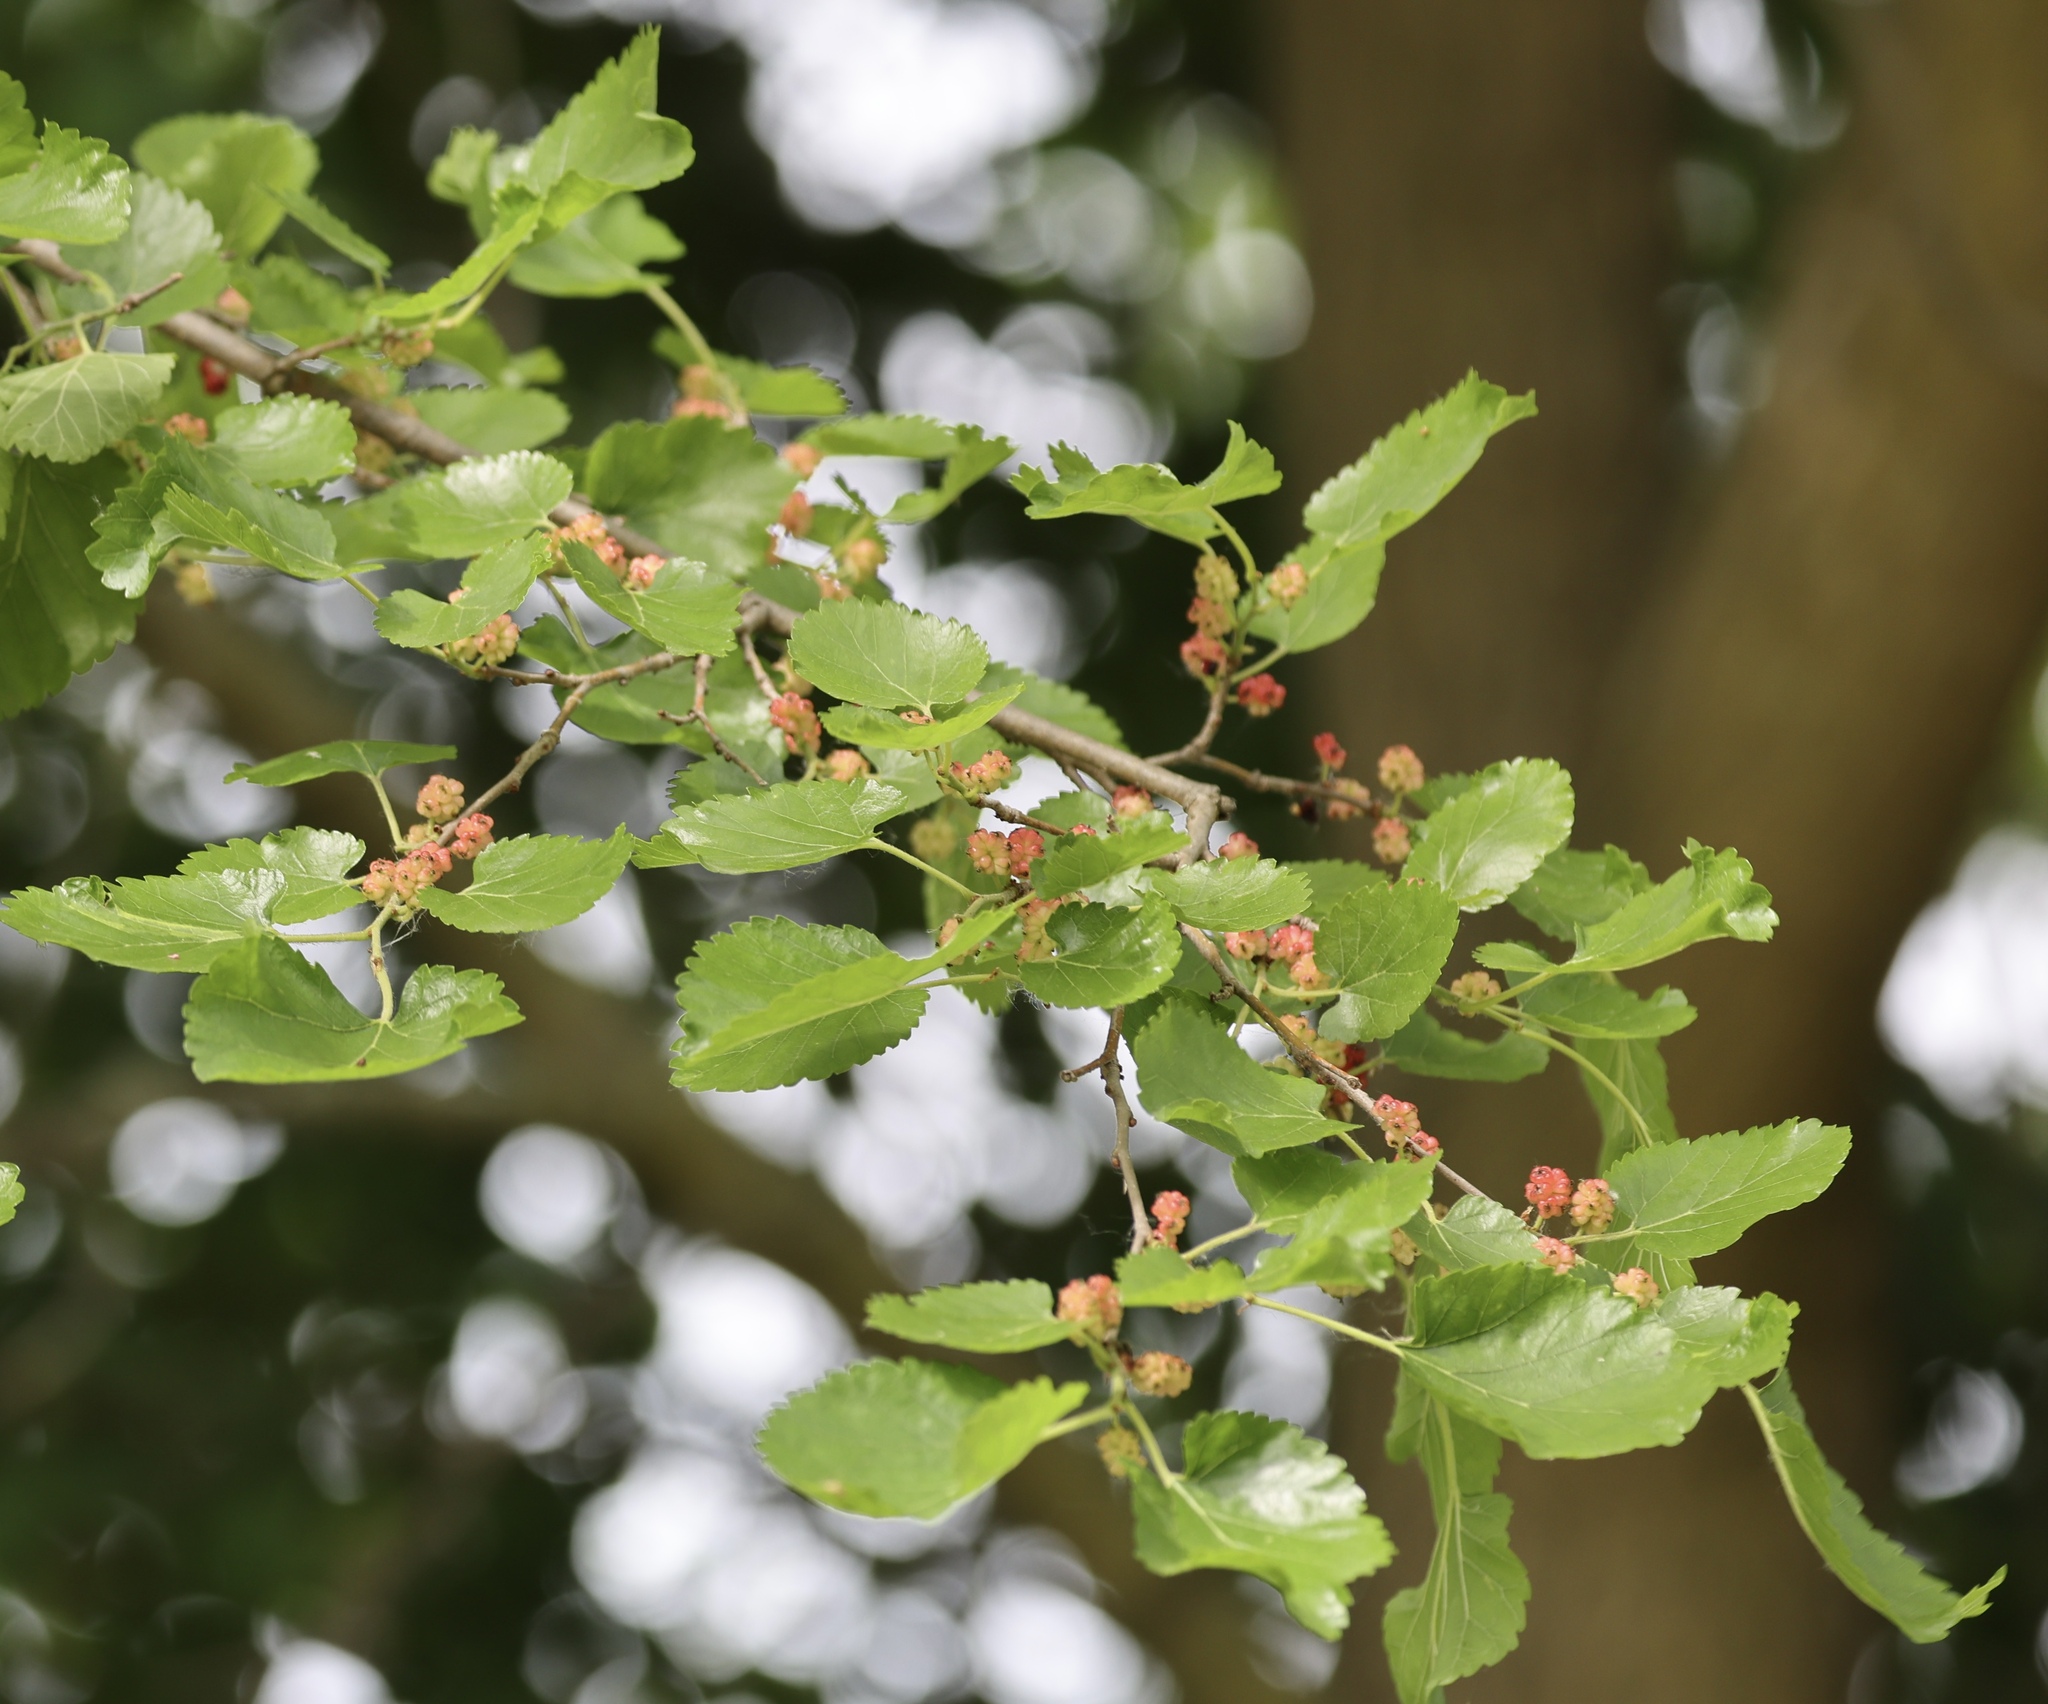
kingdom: Plantae
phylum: Tracheophyta
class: Magnoliopsida
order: Rosales
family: Moraceae
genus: Morus
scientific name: Morus alba
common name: White mulberry
